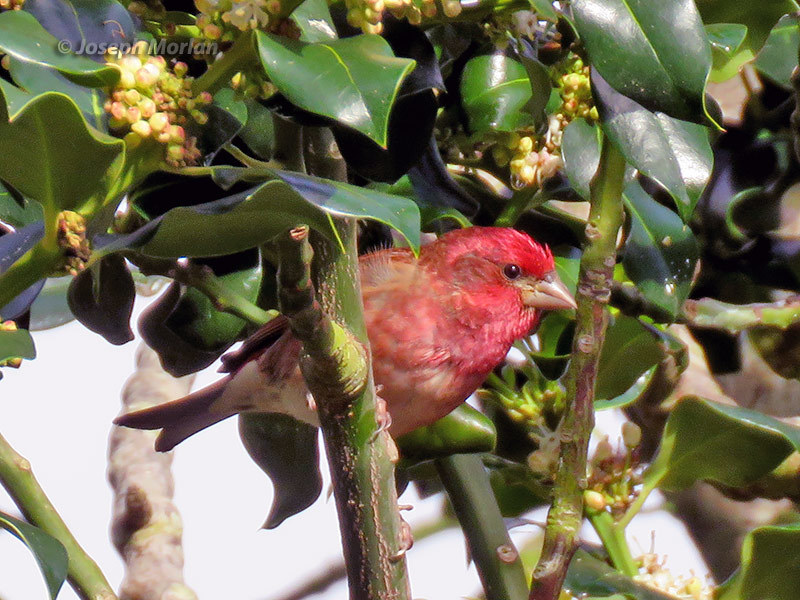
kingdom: Animalia
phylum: Chordata
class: Aves
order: Passeriformes
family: Fringillidae
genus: Haemorhous
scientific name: Haemorhous purpureus
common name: Purple finch
